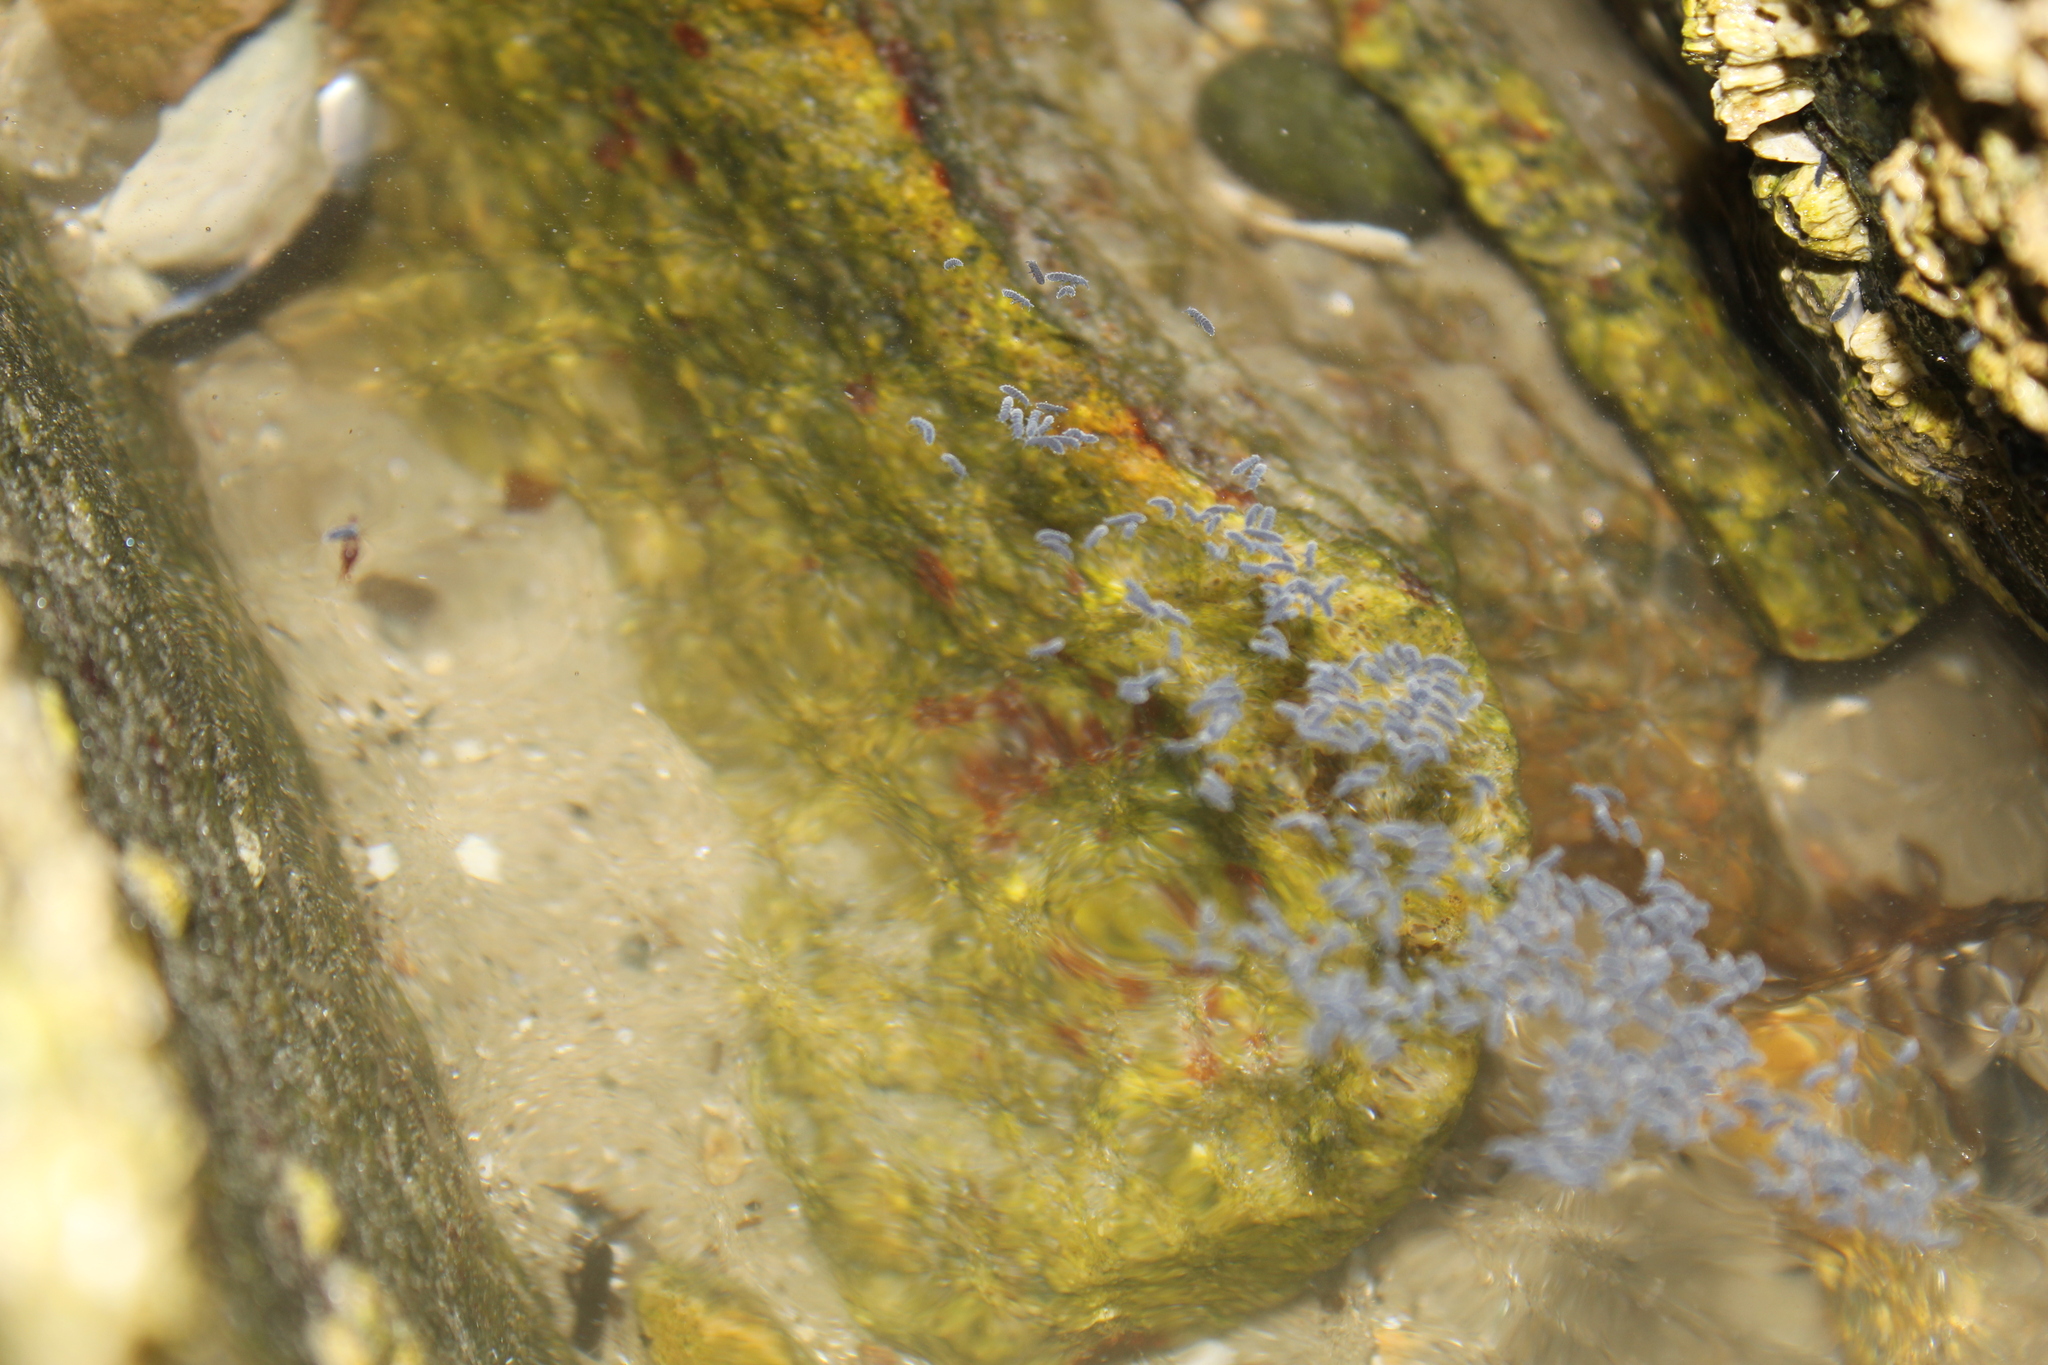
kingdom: Animalia
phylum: Arthropoda
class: Collembola
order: Poduromorpha
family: Neanuridae
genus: Anurida
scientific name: Anurida maritima
